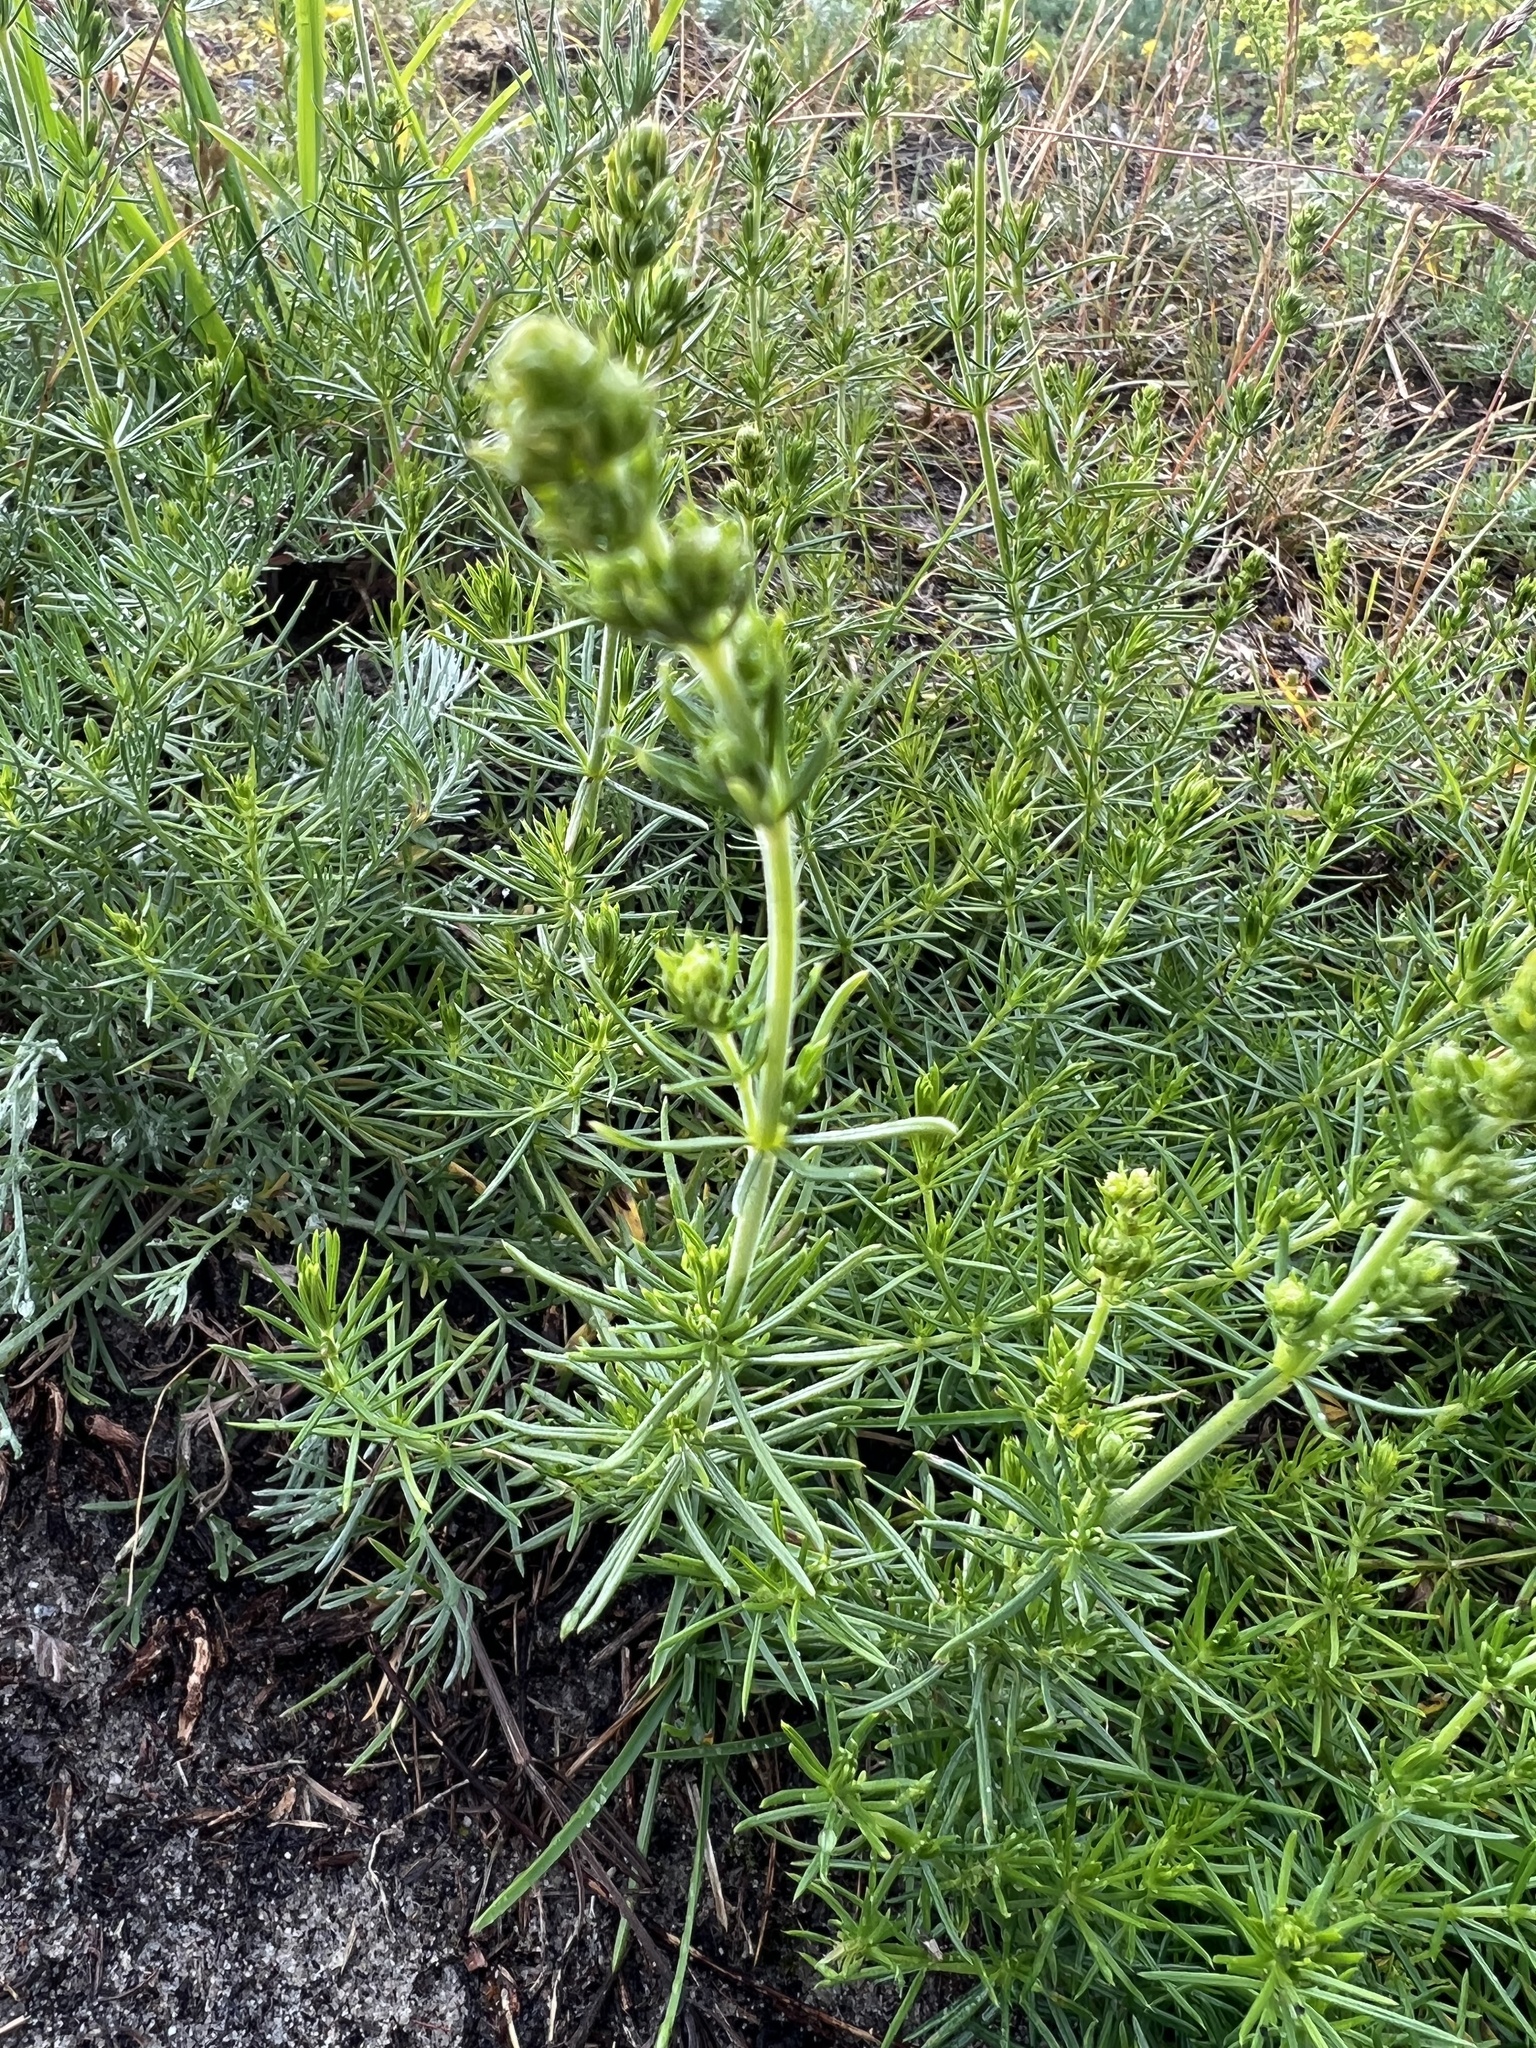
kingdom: Plantae
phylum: Tracheophyta
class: Magnoliopsida
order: Gentianales
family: Rubiaceae
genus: Galium
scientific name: Galium verum
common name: Lady's bedstraw
